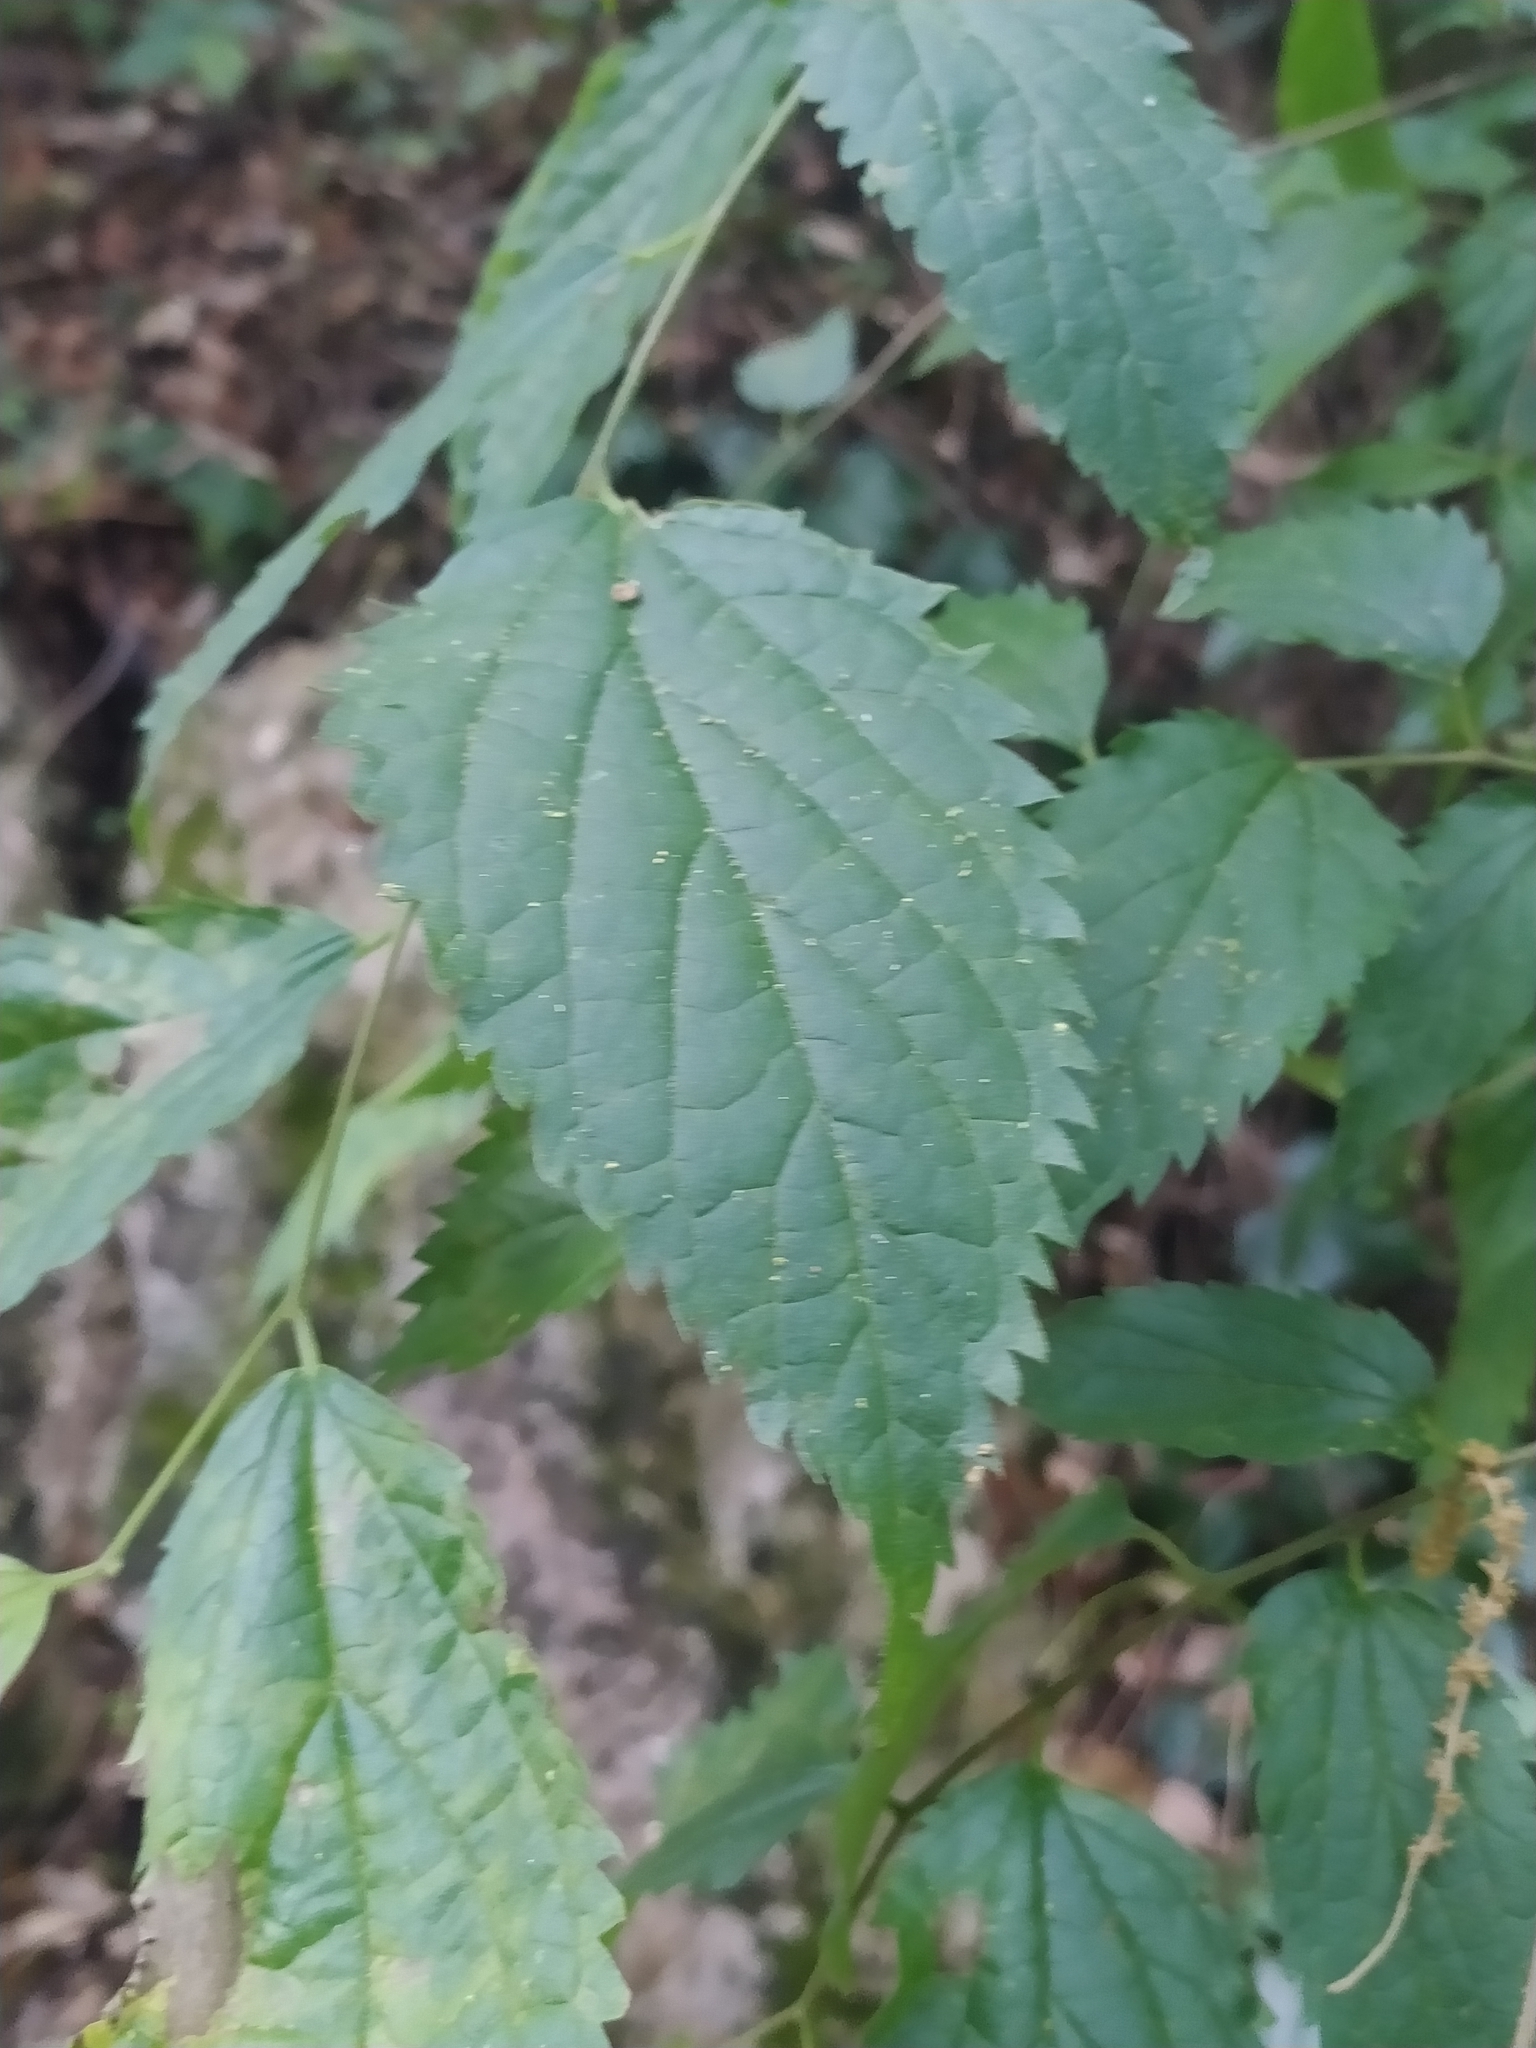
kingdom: Plantae
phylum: Tracheophyta
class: Magnoliopsida
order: Rosales
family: Cannabaceae
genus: Celtis
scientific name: Celtis australis
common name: European hackberry
